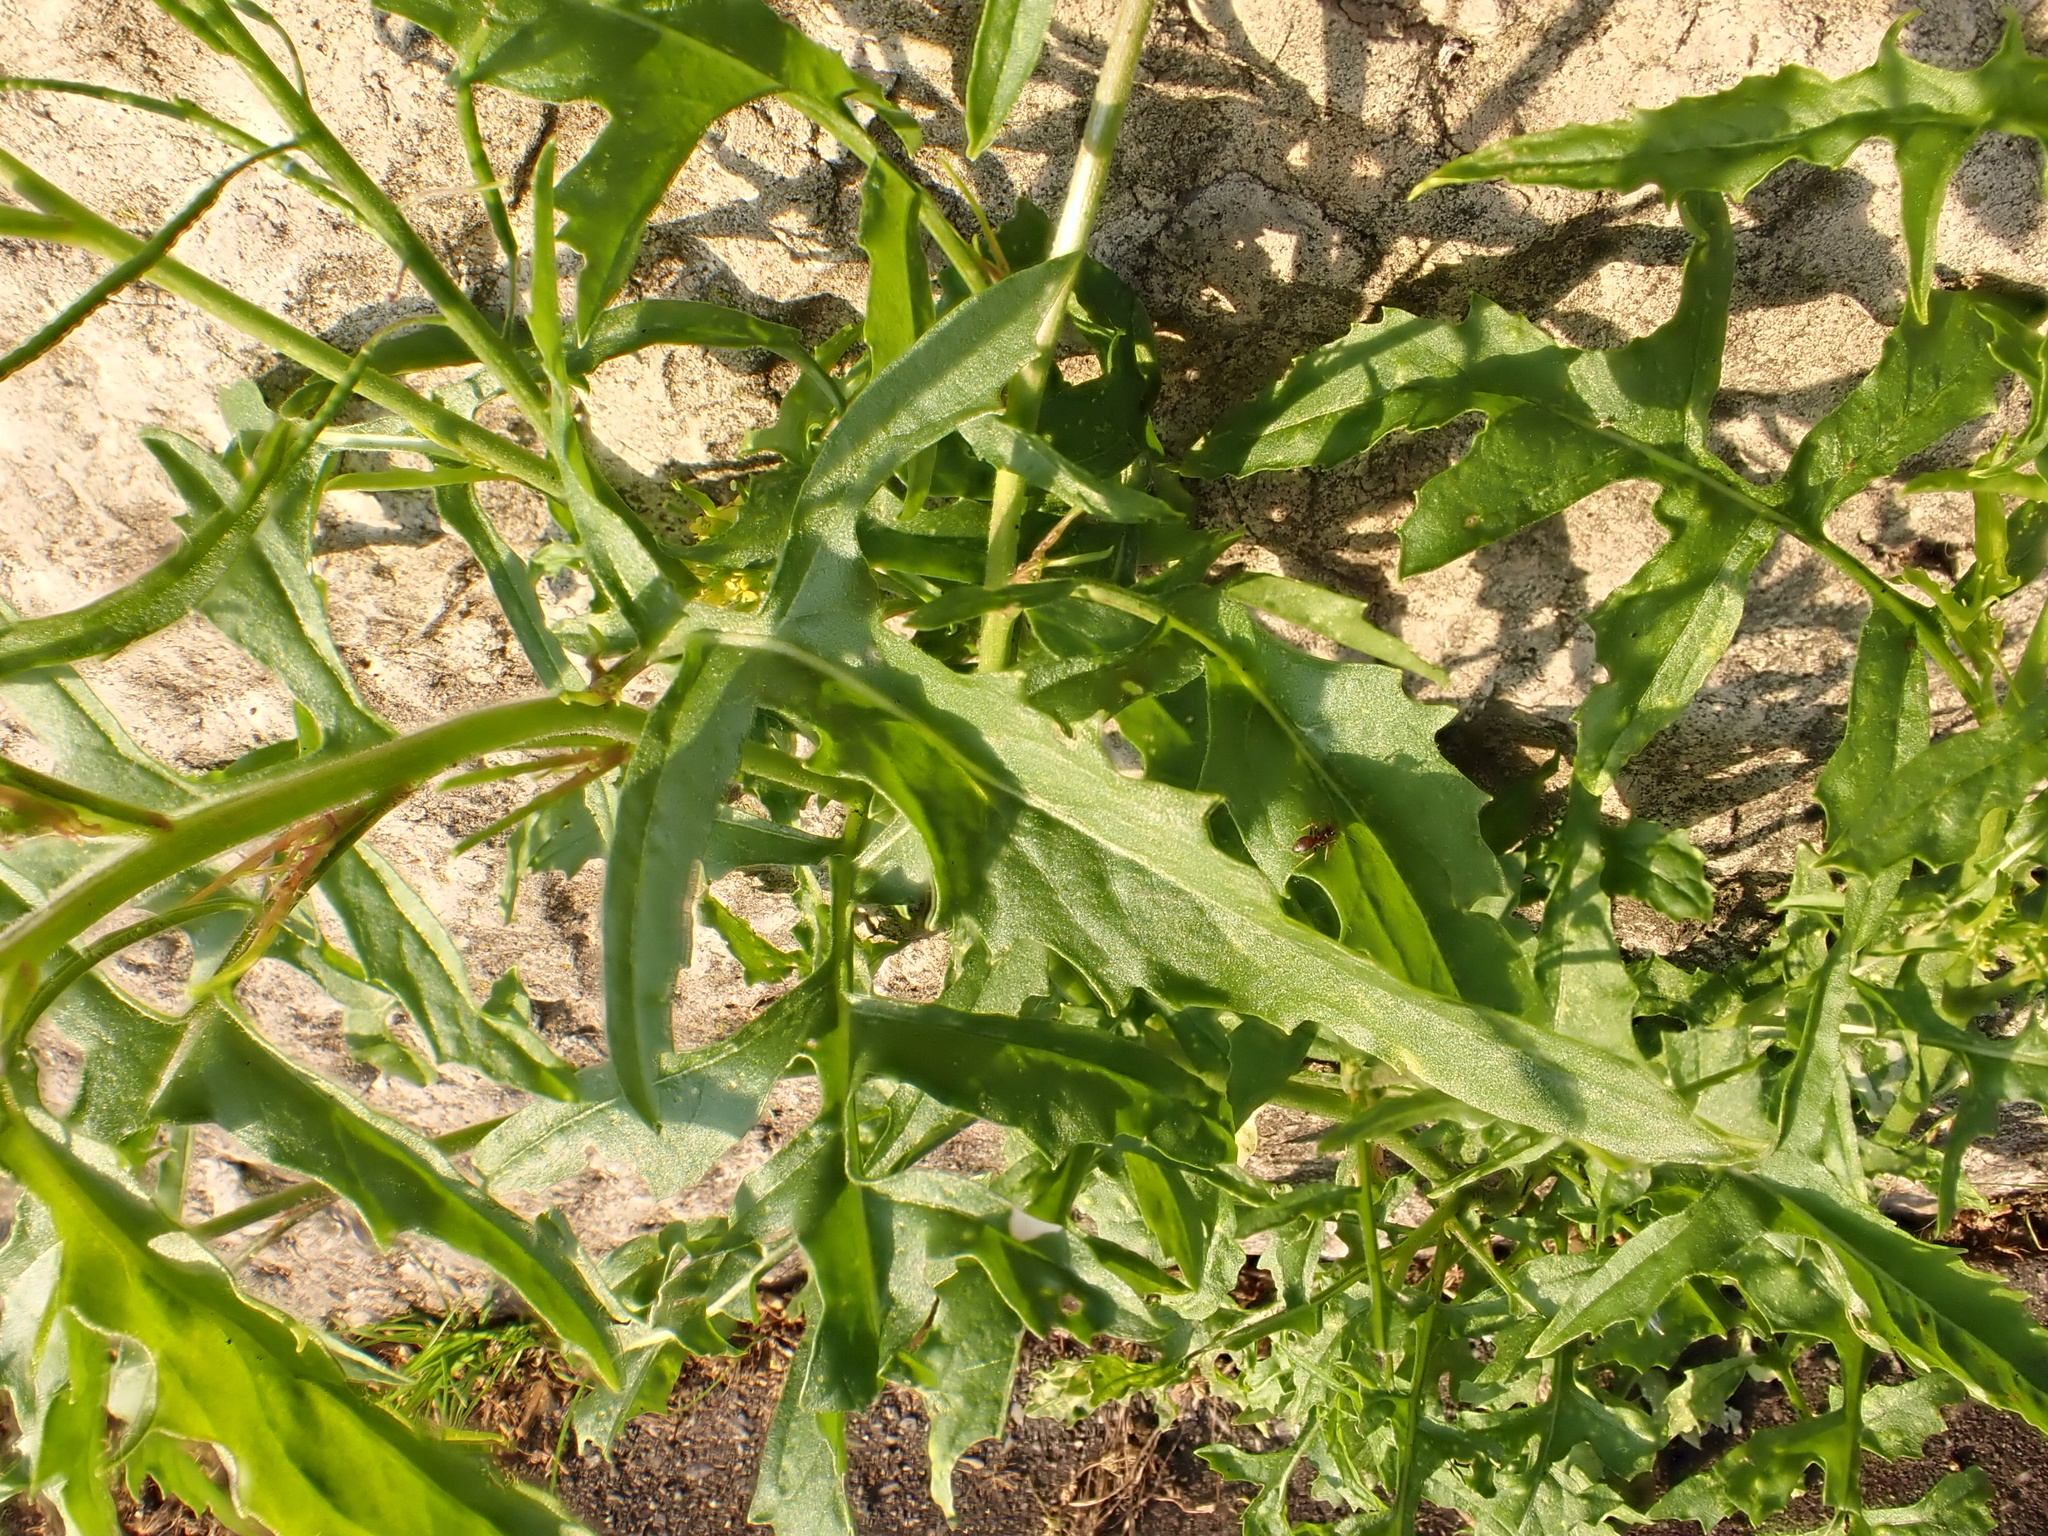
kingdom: Plantae
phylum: Tracheophyta
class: Magnoliopsida
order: Brassicales
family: Brassicaceae
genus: Sisymbrium
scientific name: Sisymbrium irio
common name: London rocket
